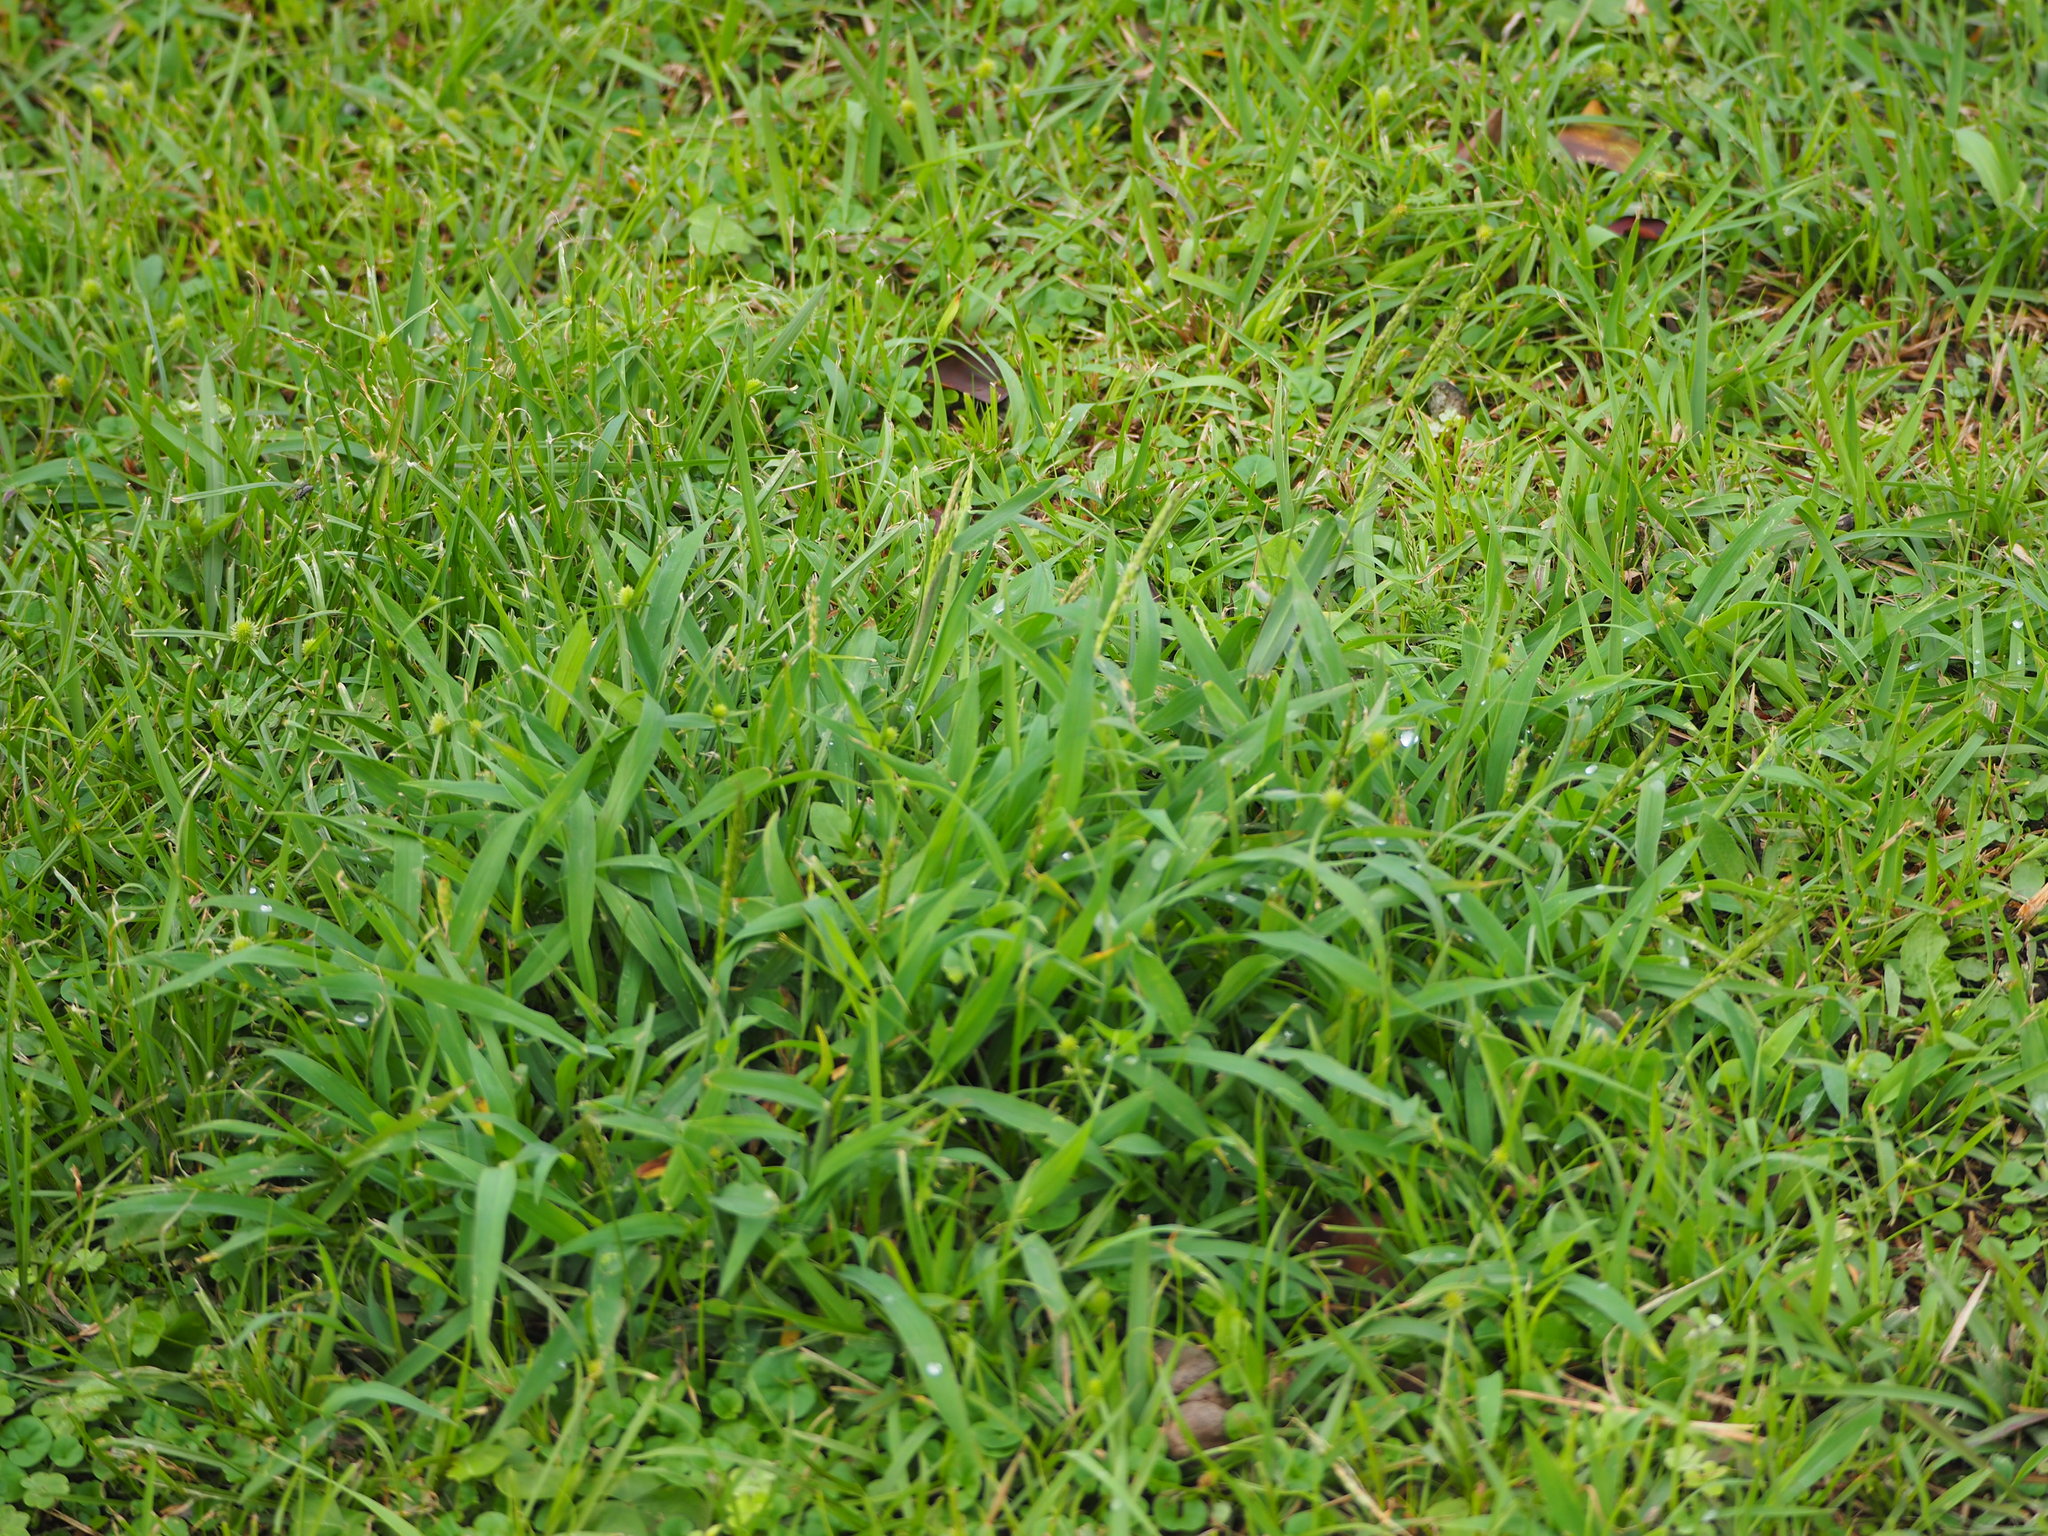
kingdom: Plantae
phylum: Tracheophyta
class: Liliopsida
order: Poales
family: Poaceae
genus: Digitaria
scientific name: Digitaria ciliaris
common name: Tropical finger-grass
